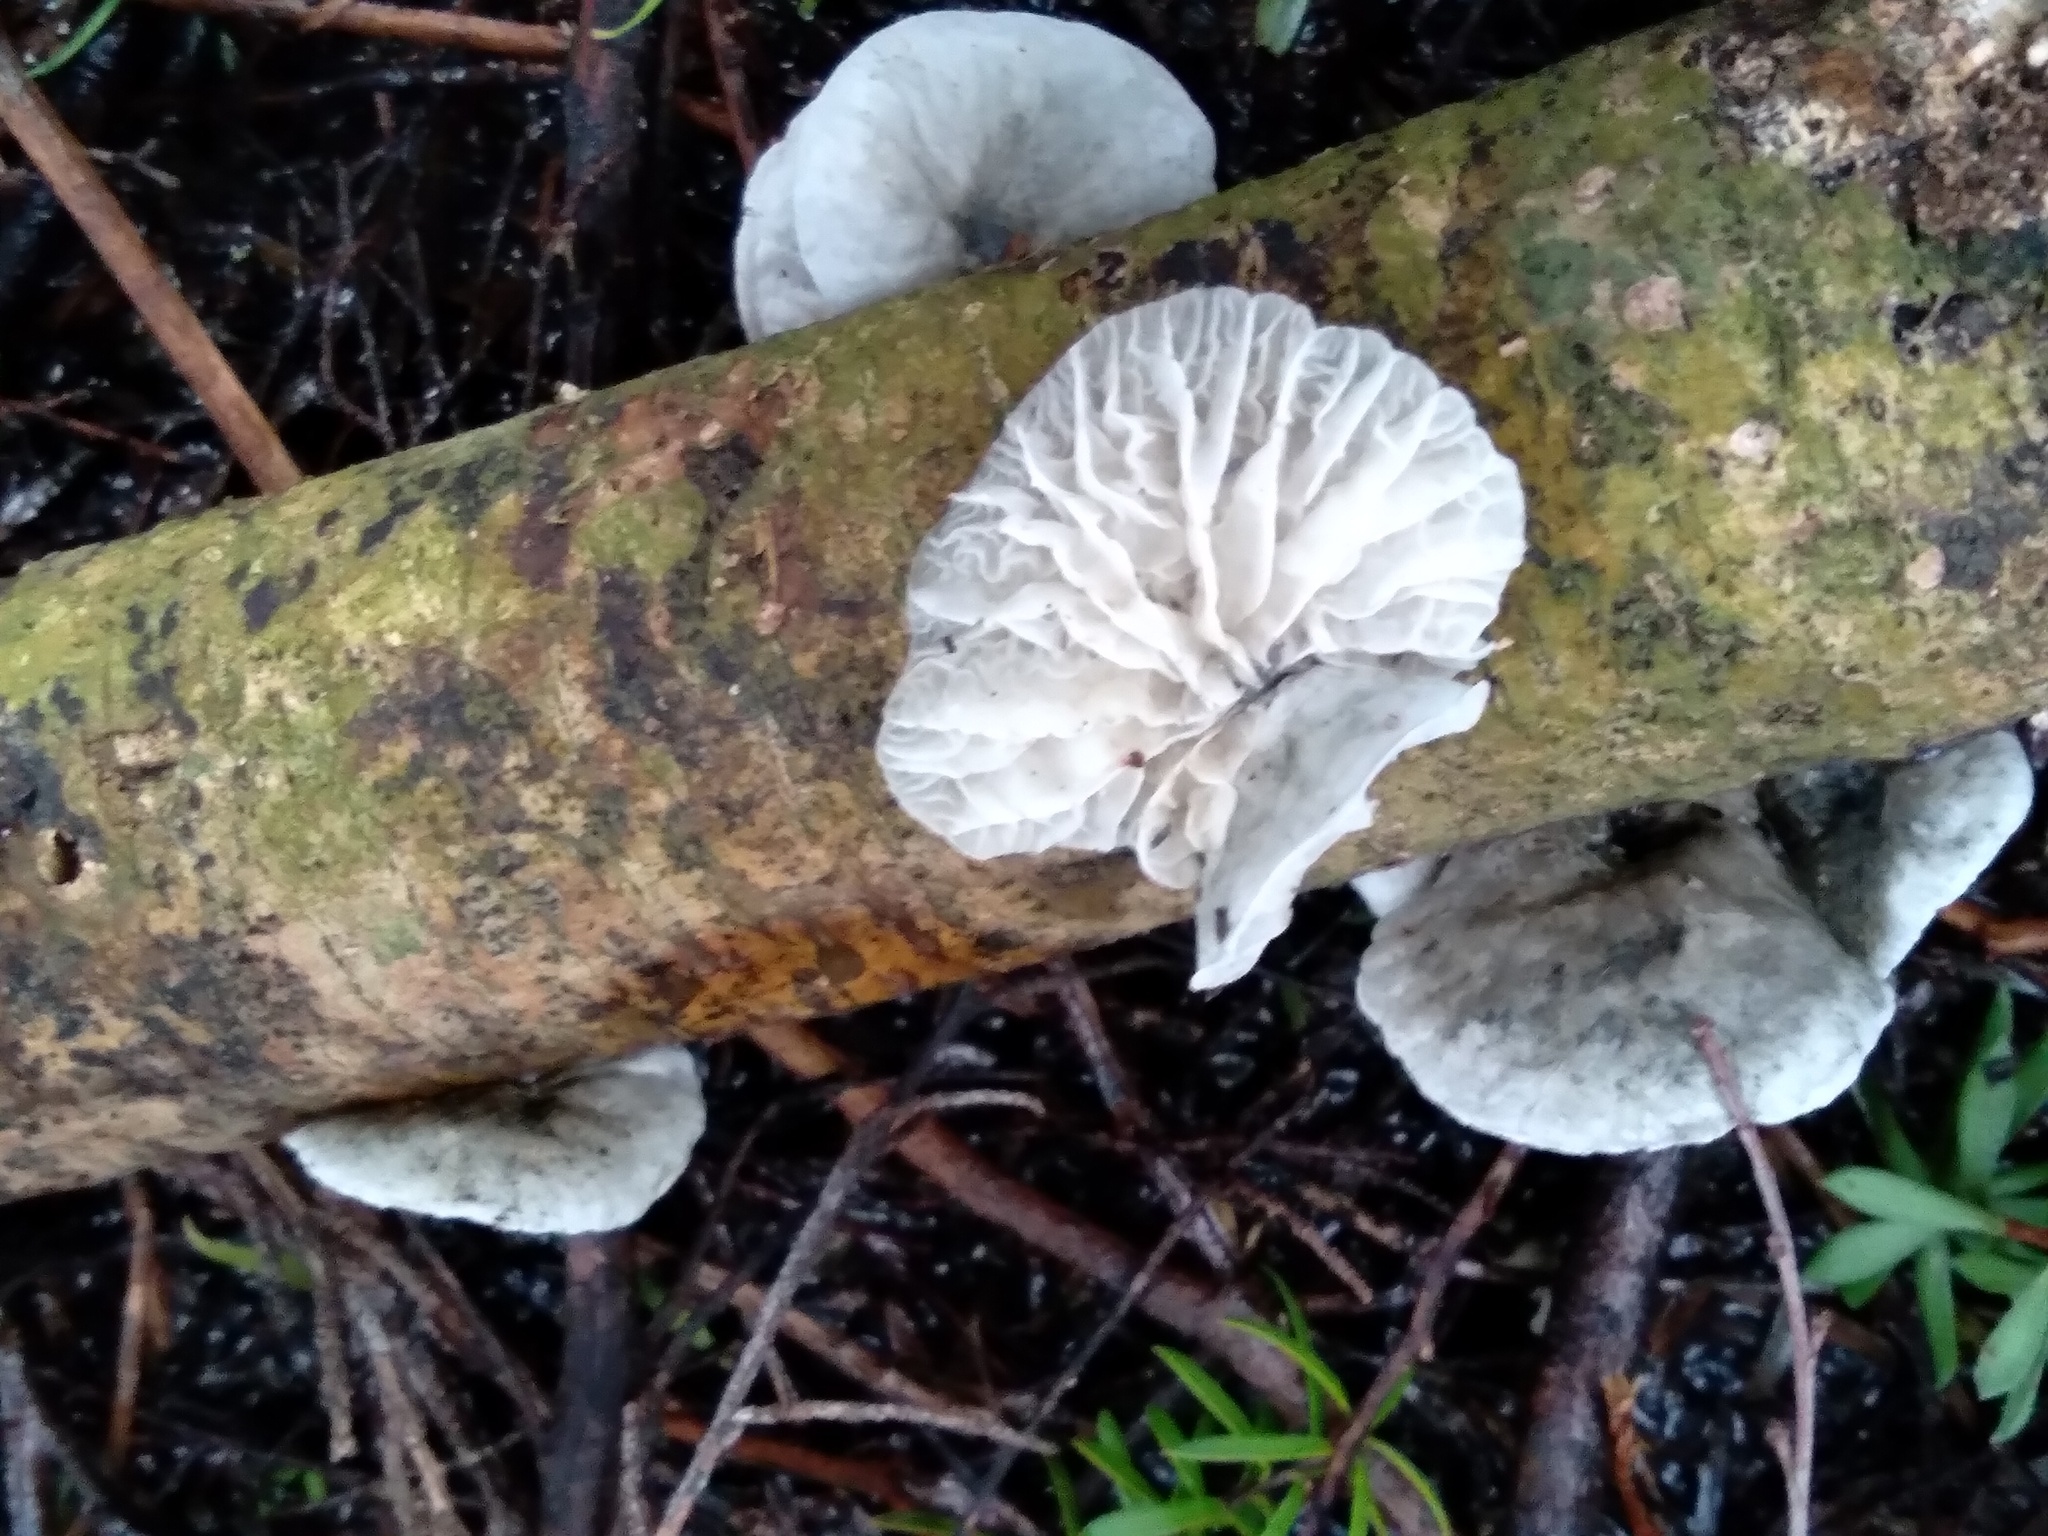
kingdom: Fungi
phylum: Basidiomycota
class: Agaricomycetes
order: Agaricales
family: Marasmiaceae
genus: Campanella
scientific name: Campanella tristis
